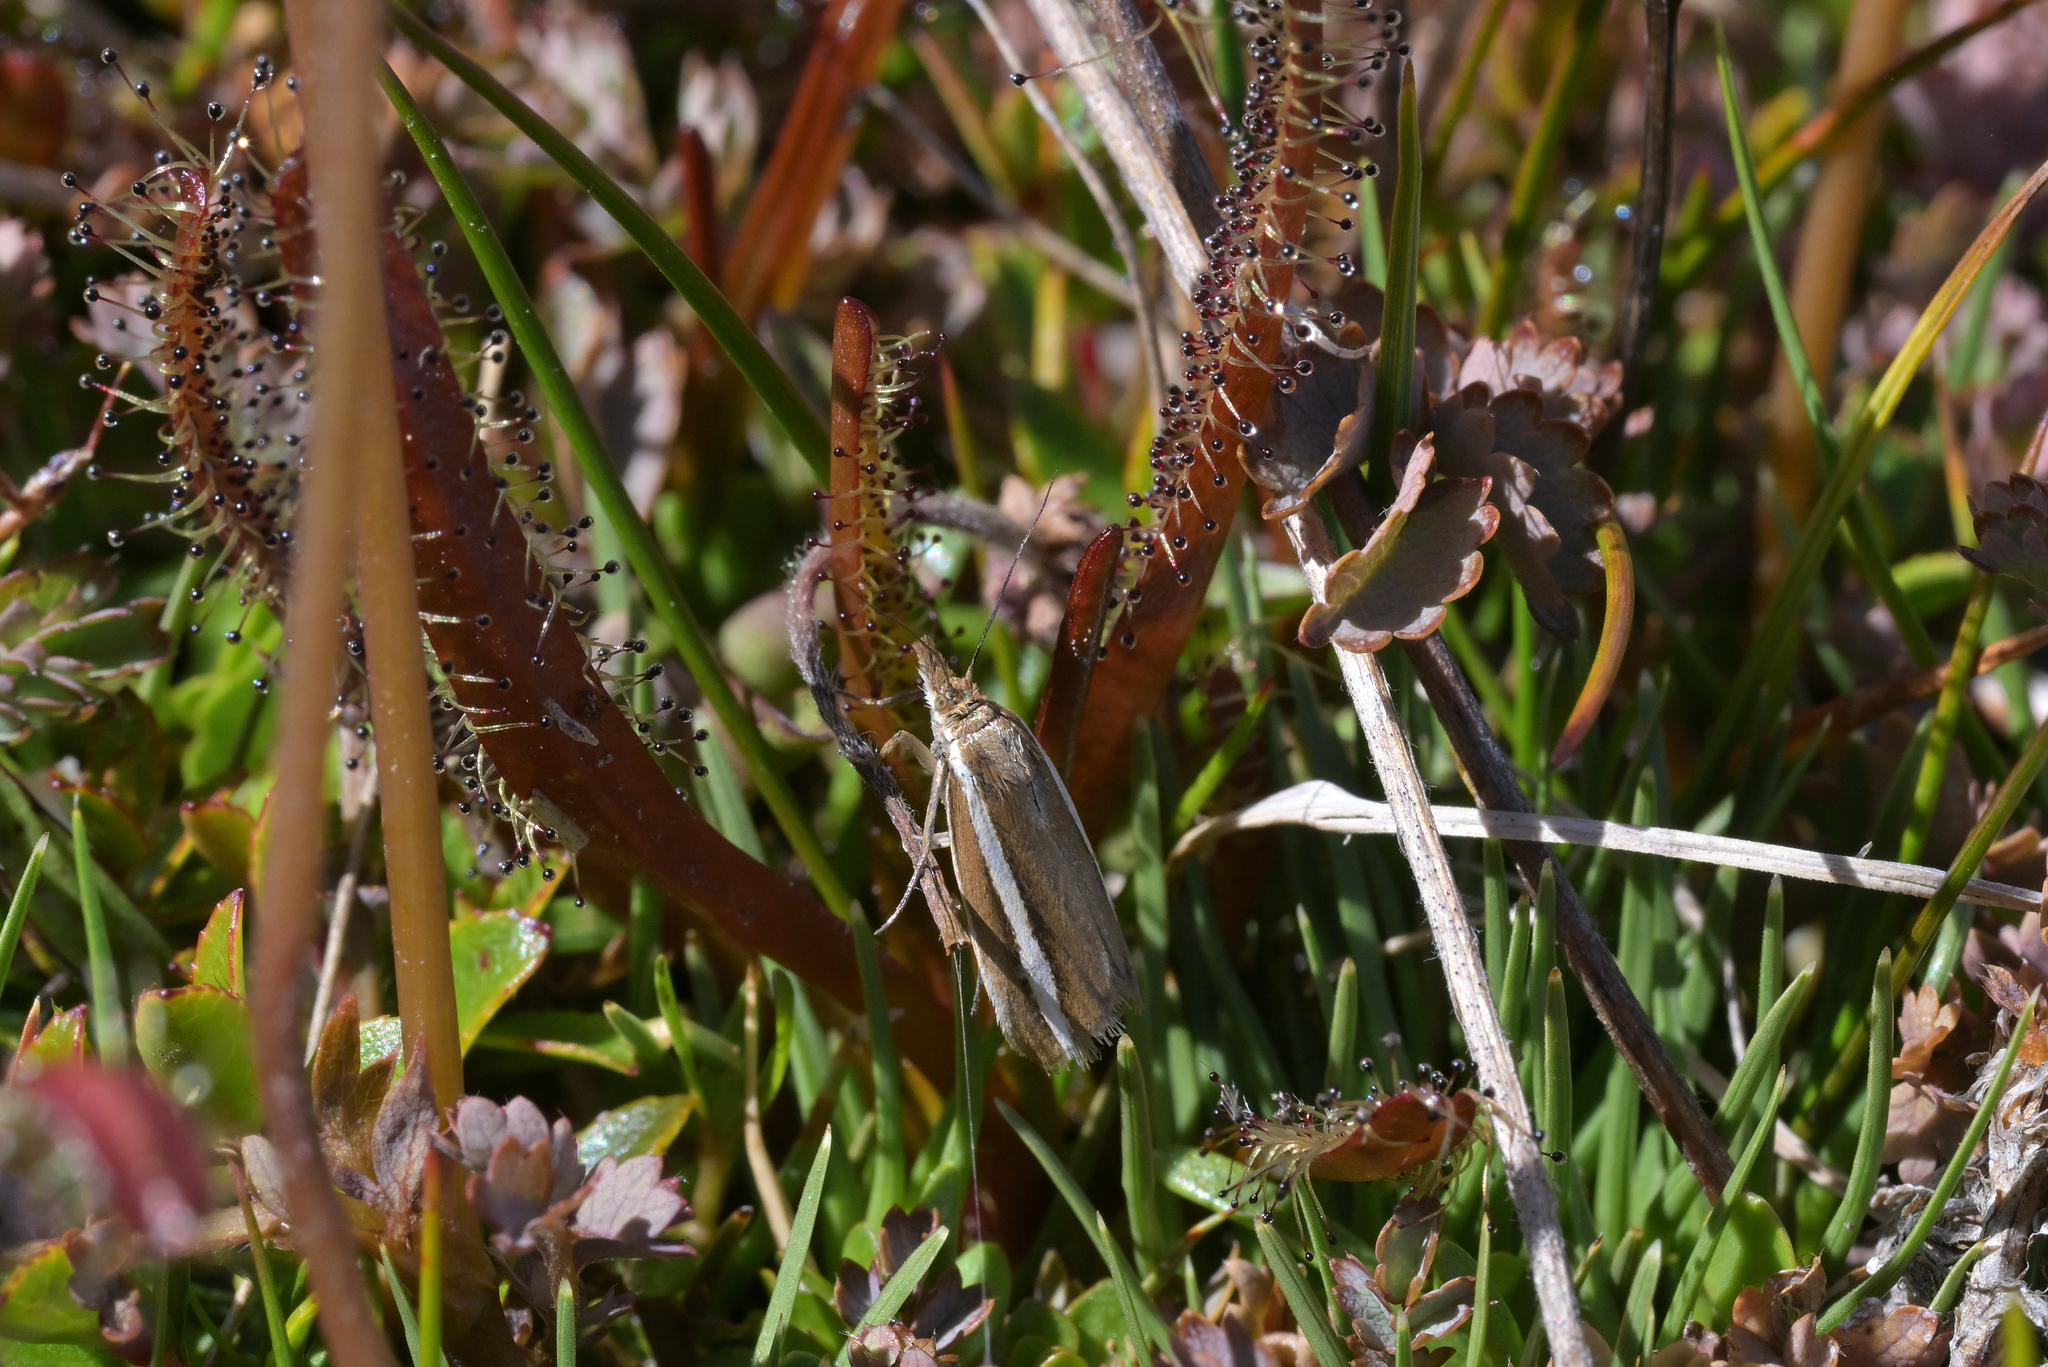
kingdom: Animalia
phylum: Arthropoda
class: Insecta
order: Lepidoptera
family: Crambidae
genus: Orocrambus
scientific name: Orocrambus aethonellus
